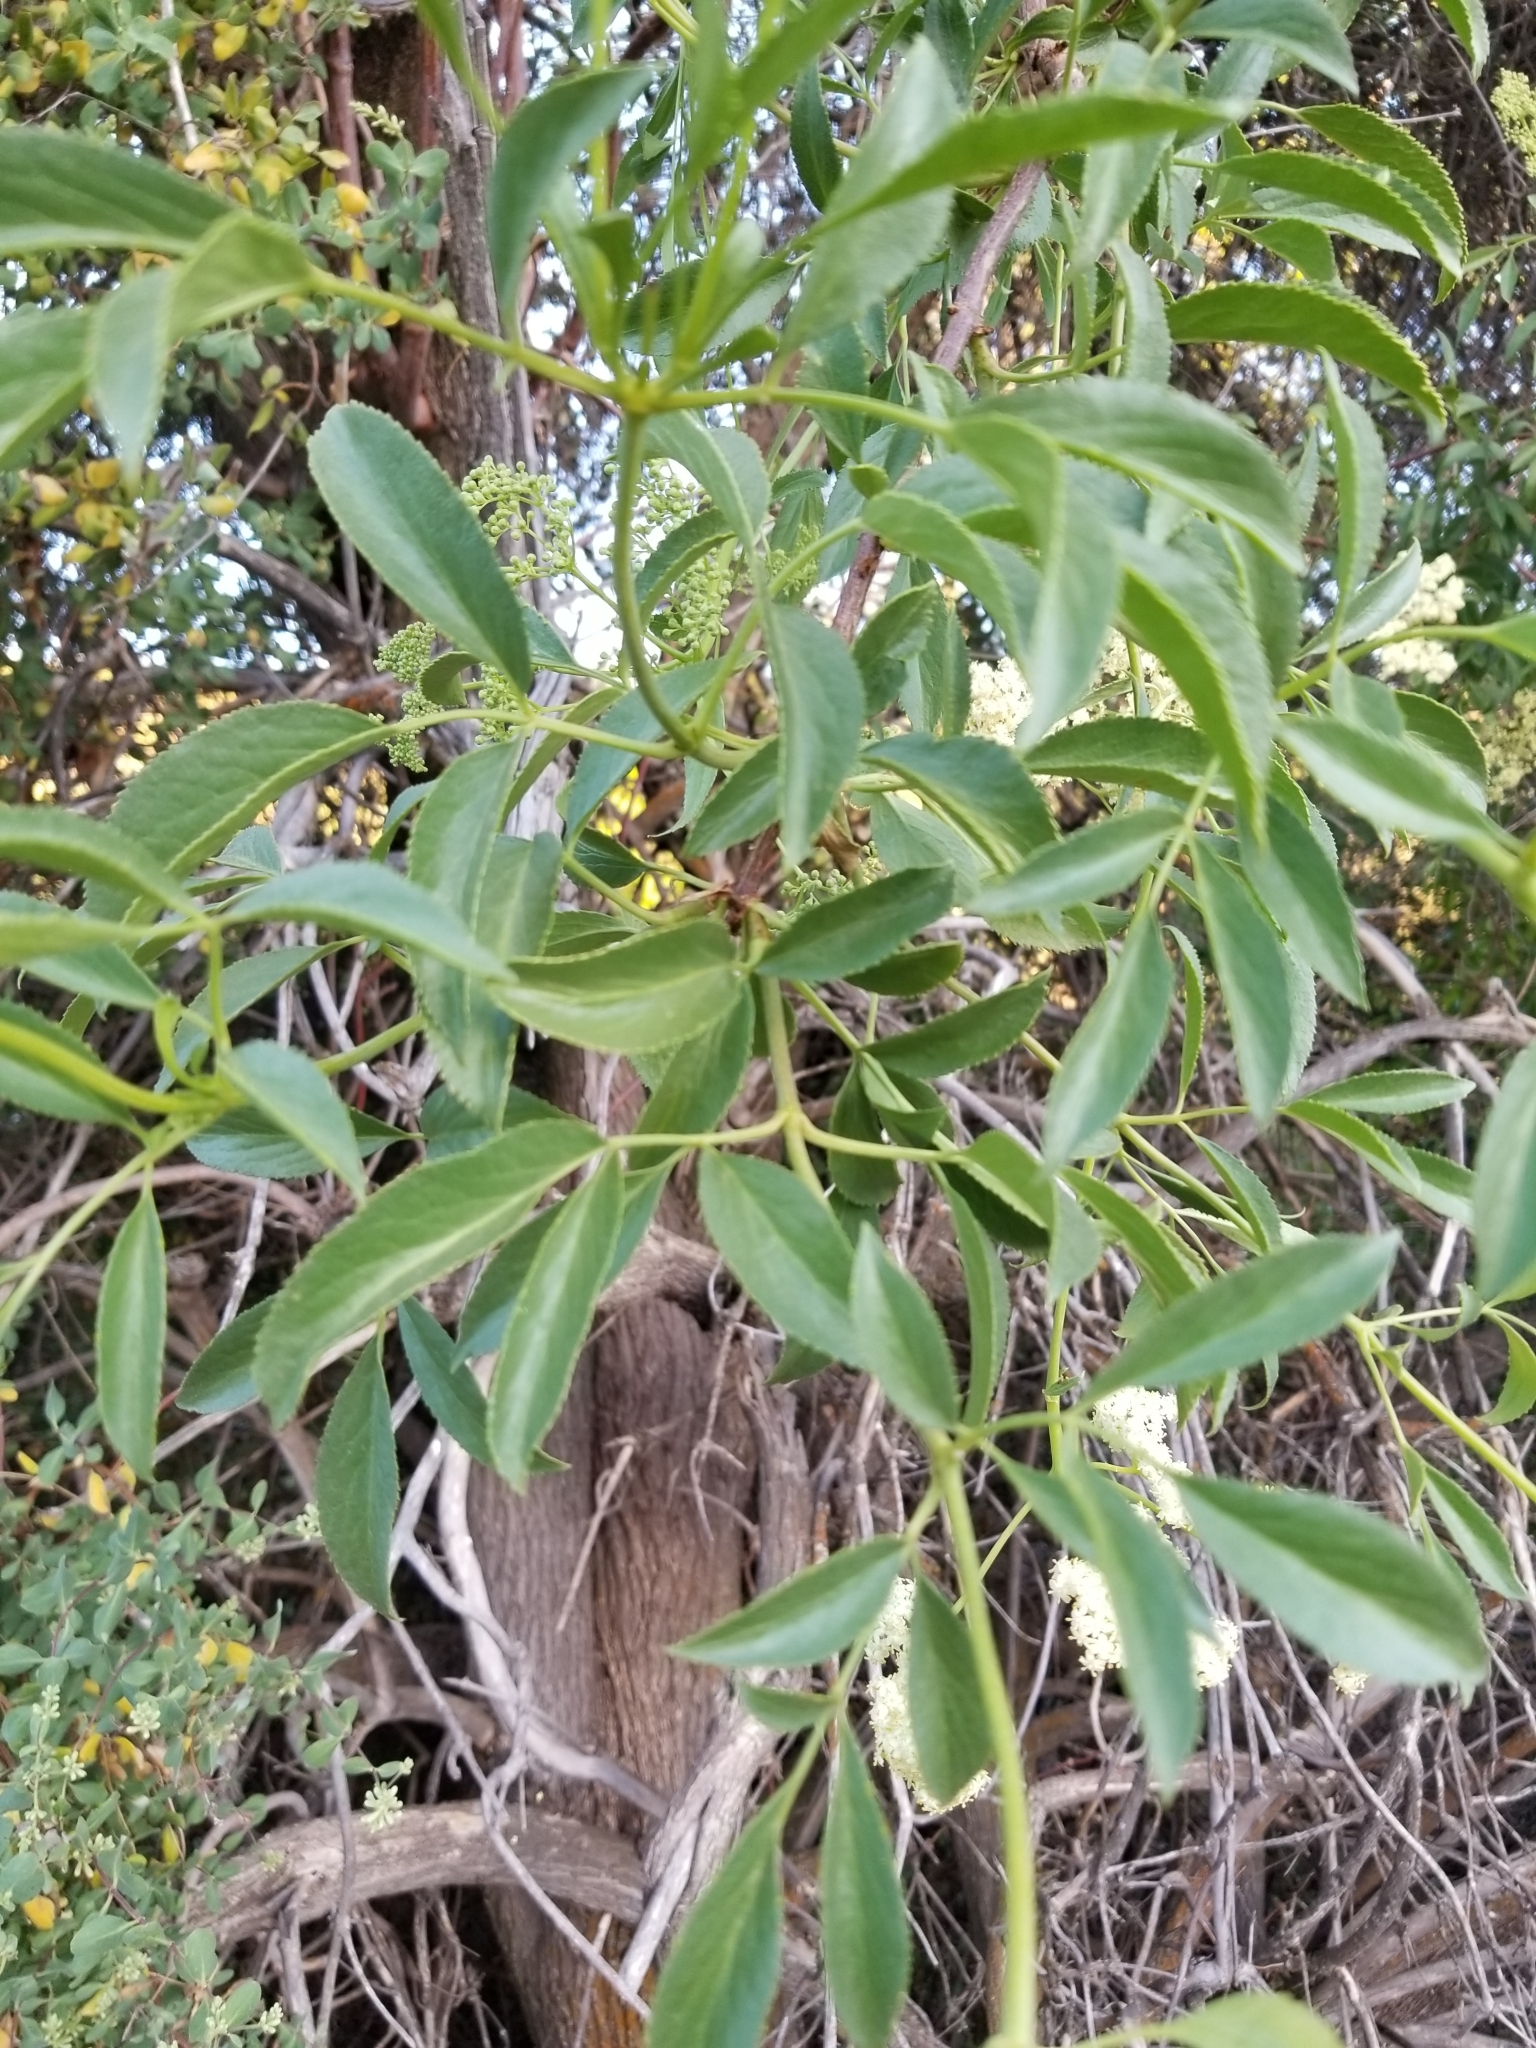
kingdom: Plantae
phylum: Tracheophyta
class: Magnoliopsida
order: Dipsacales
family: Viburnaceae
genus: Sambucus
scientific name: Sambucus cerulea
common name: Blue elder
